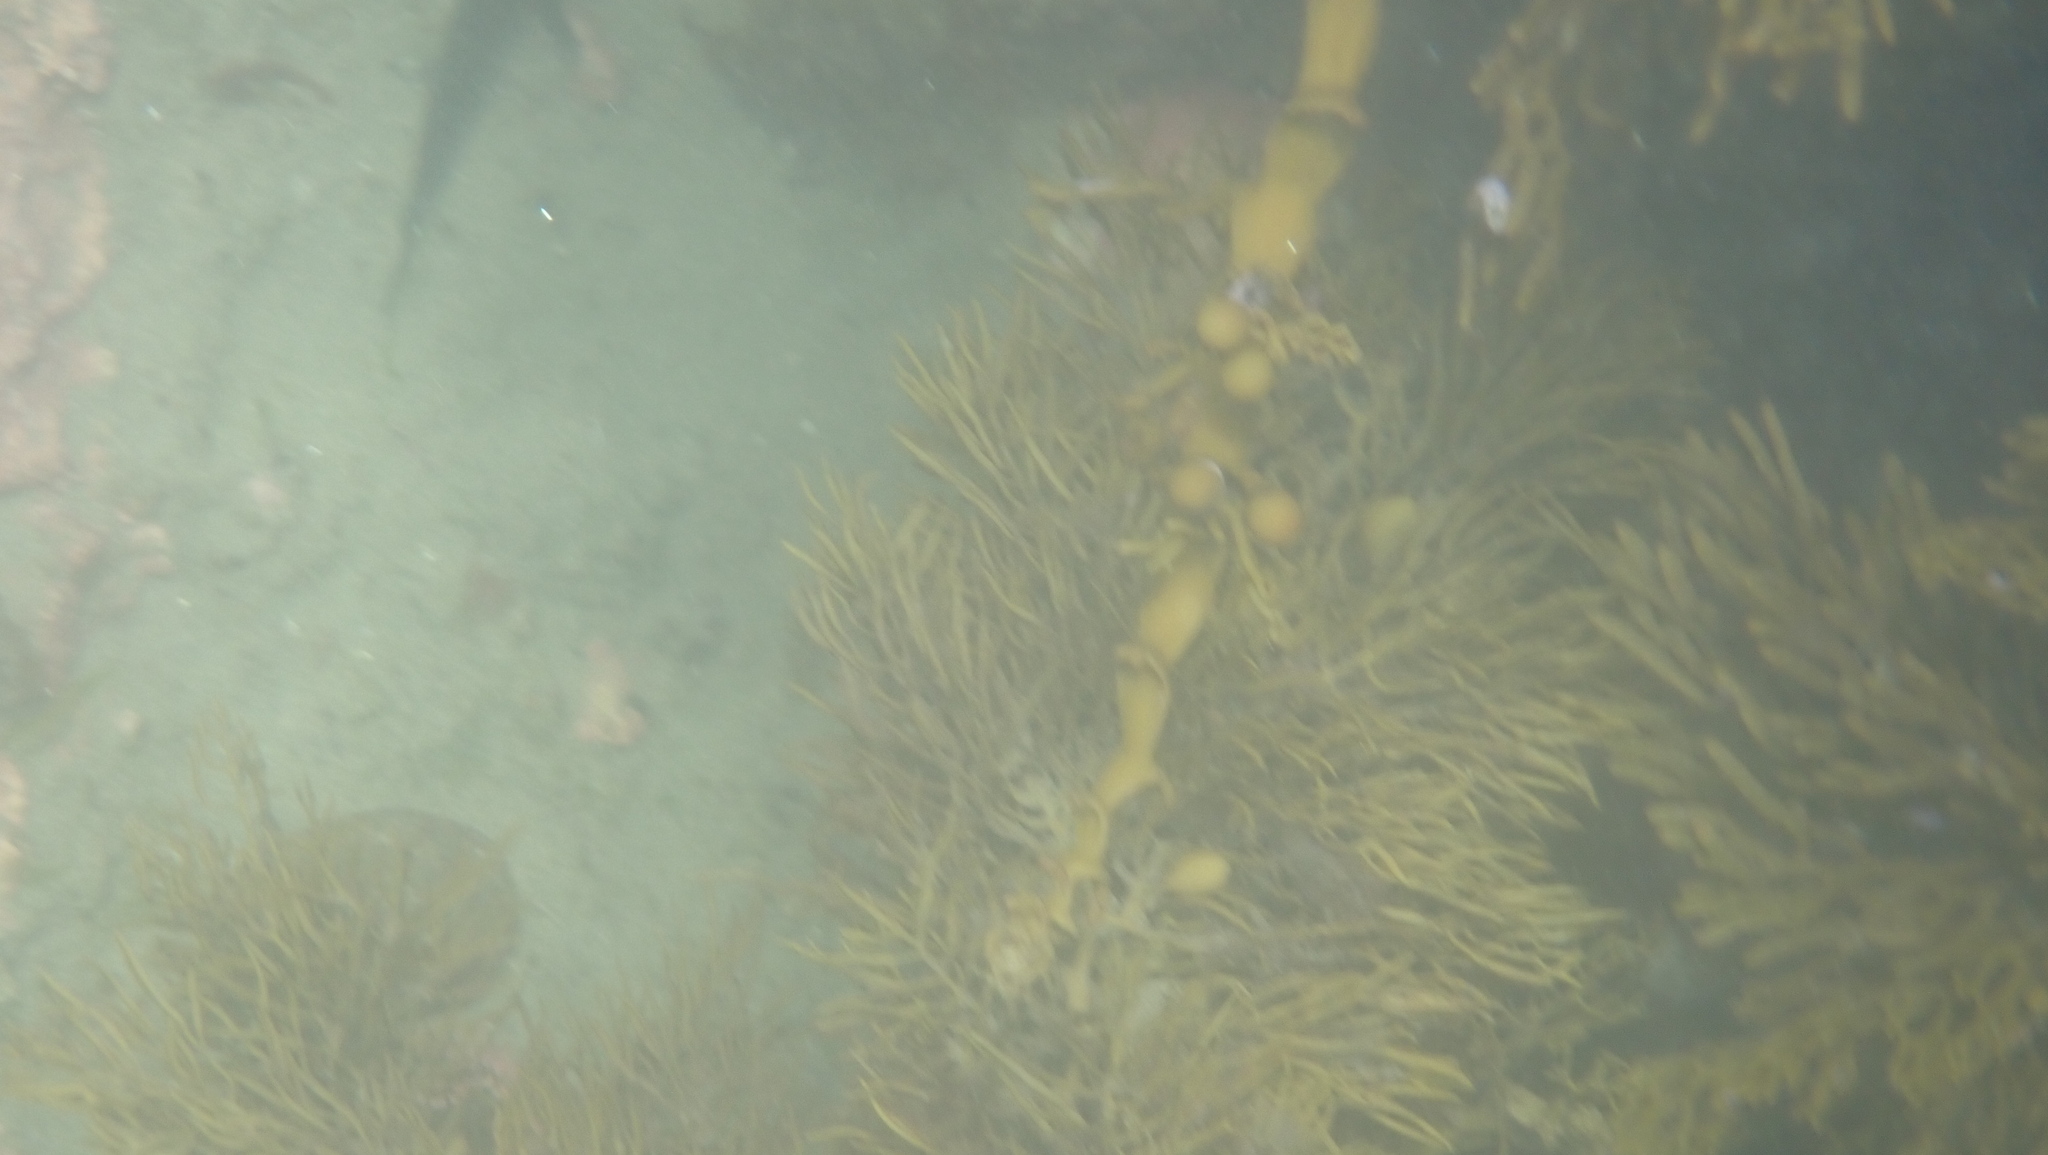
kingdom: Chromista
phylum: Ochrophyta
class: Phaeophyceae
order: Fucales
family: Sargassaceae
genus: Cystophora
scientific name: Cystophora retroflexa
